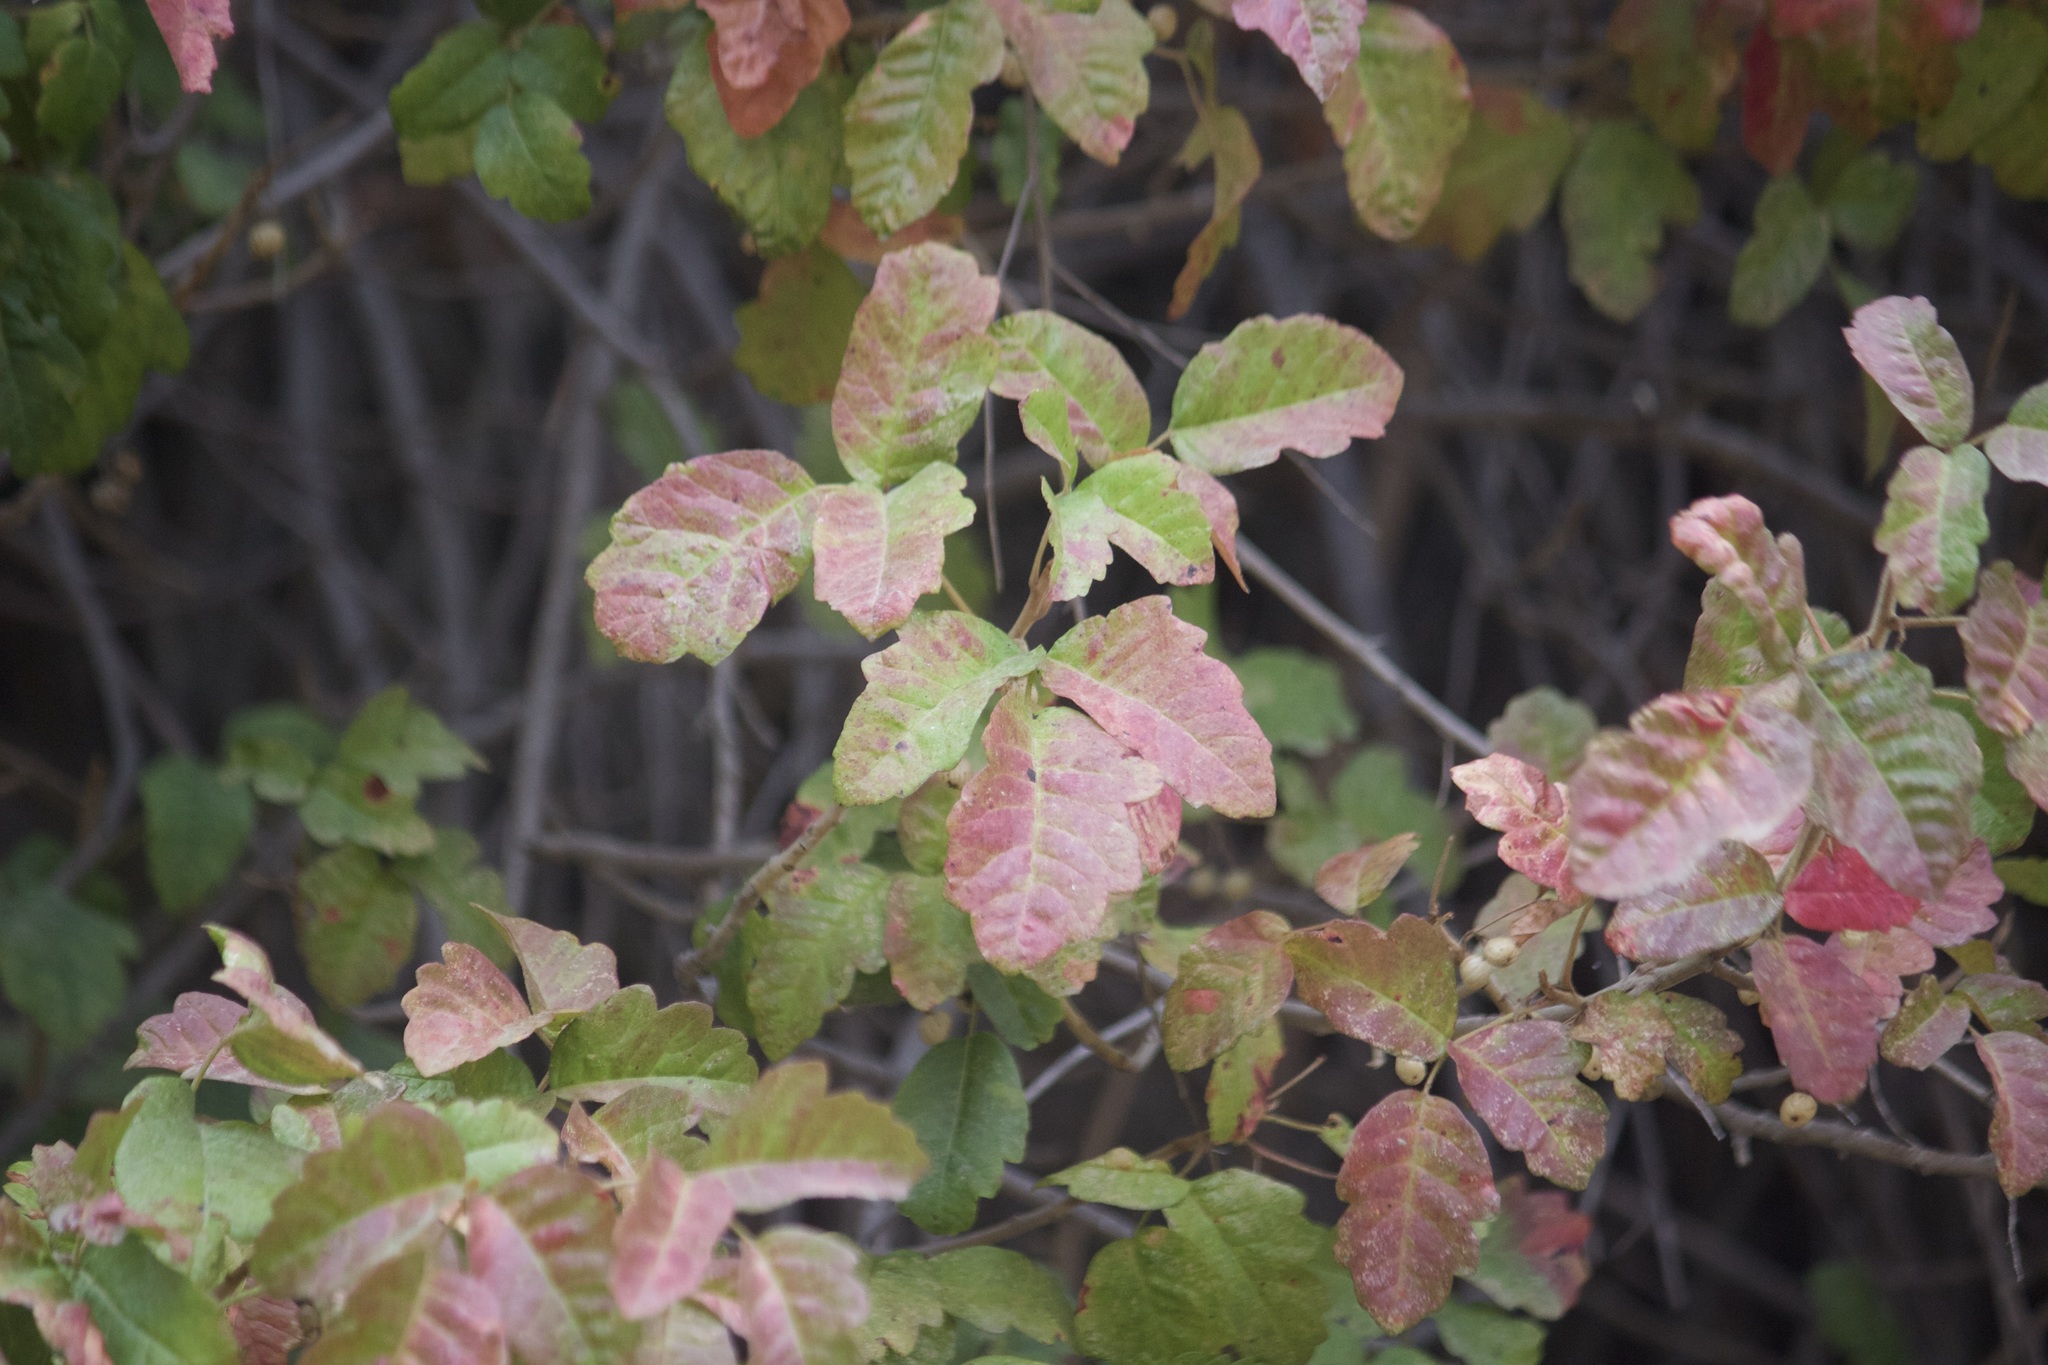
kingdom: Plantae
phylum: Tracheophyta
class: Magnoliopsida
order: Sapindales
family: Anacardiaceae
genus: Toxicodendron
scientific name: Toxicodendron diversilobum
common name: Pacific poison-oak
